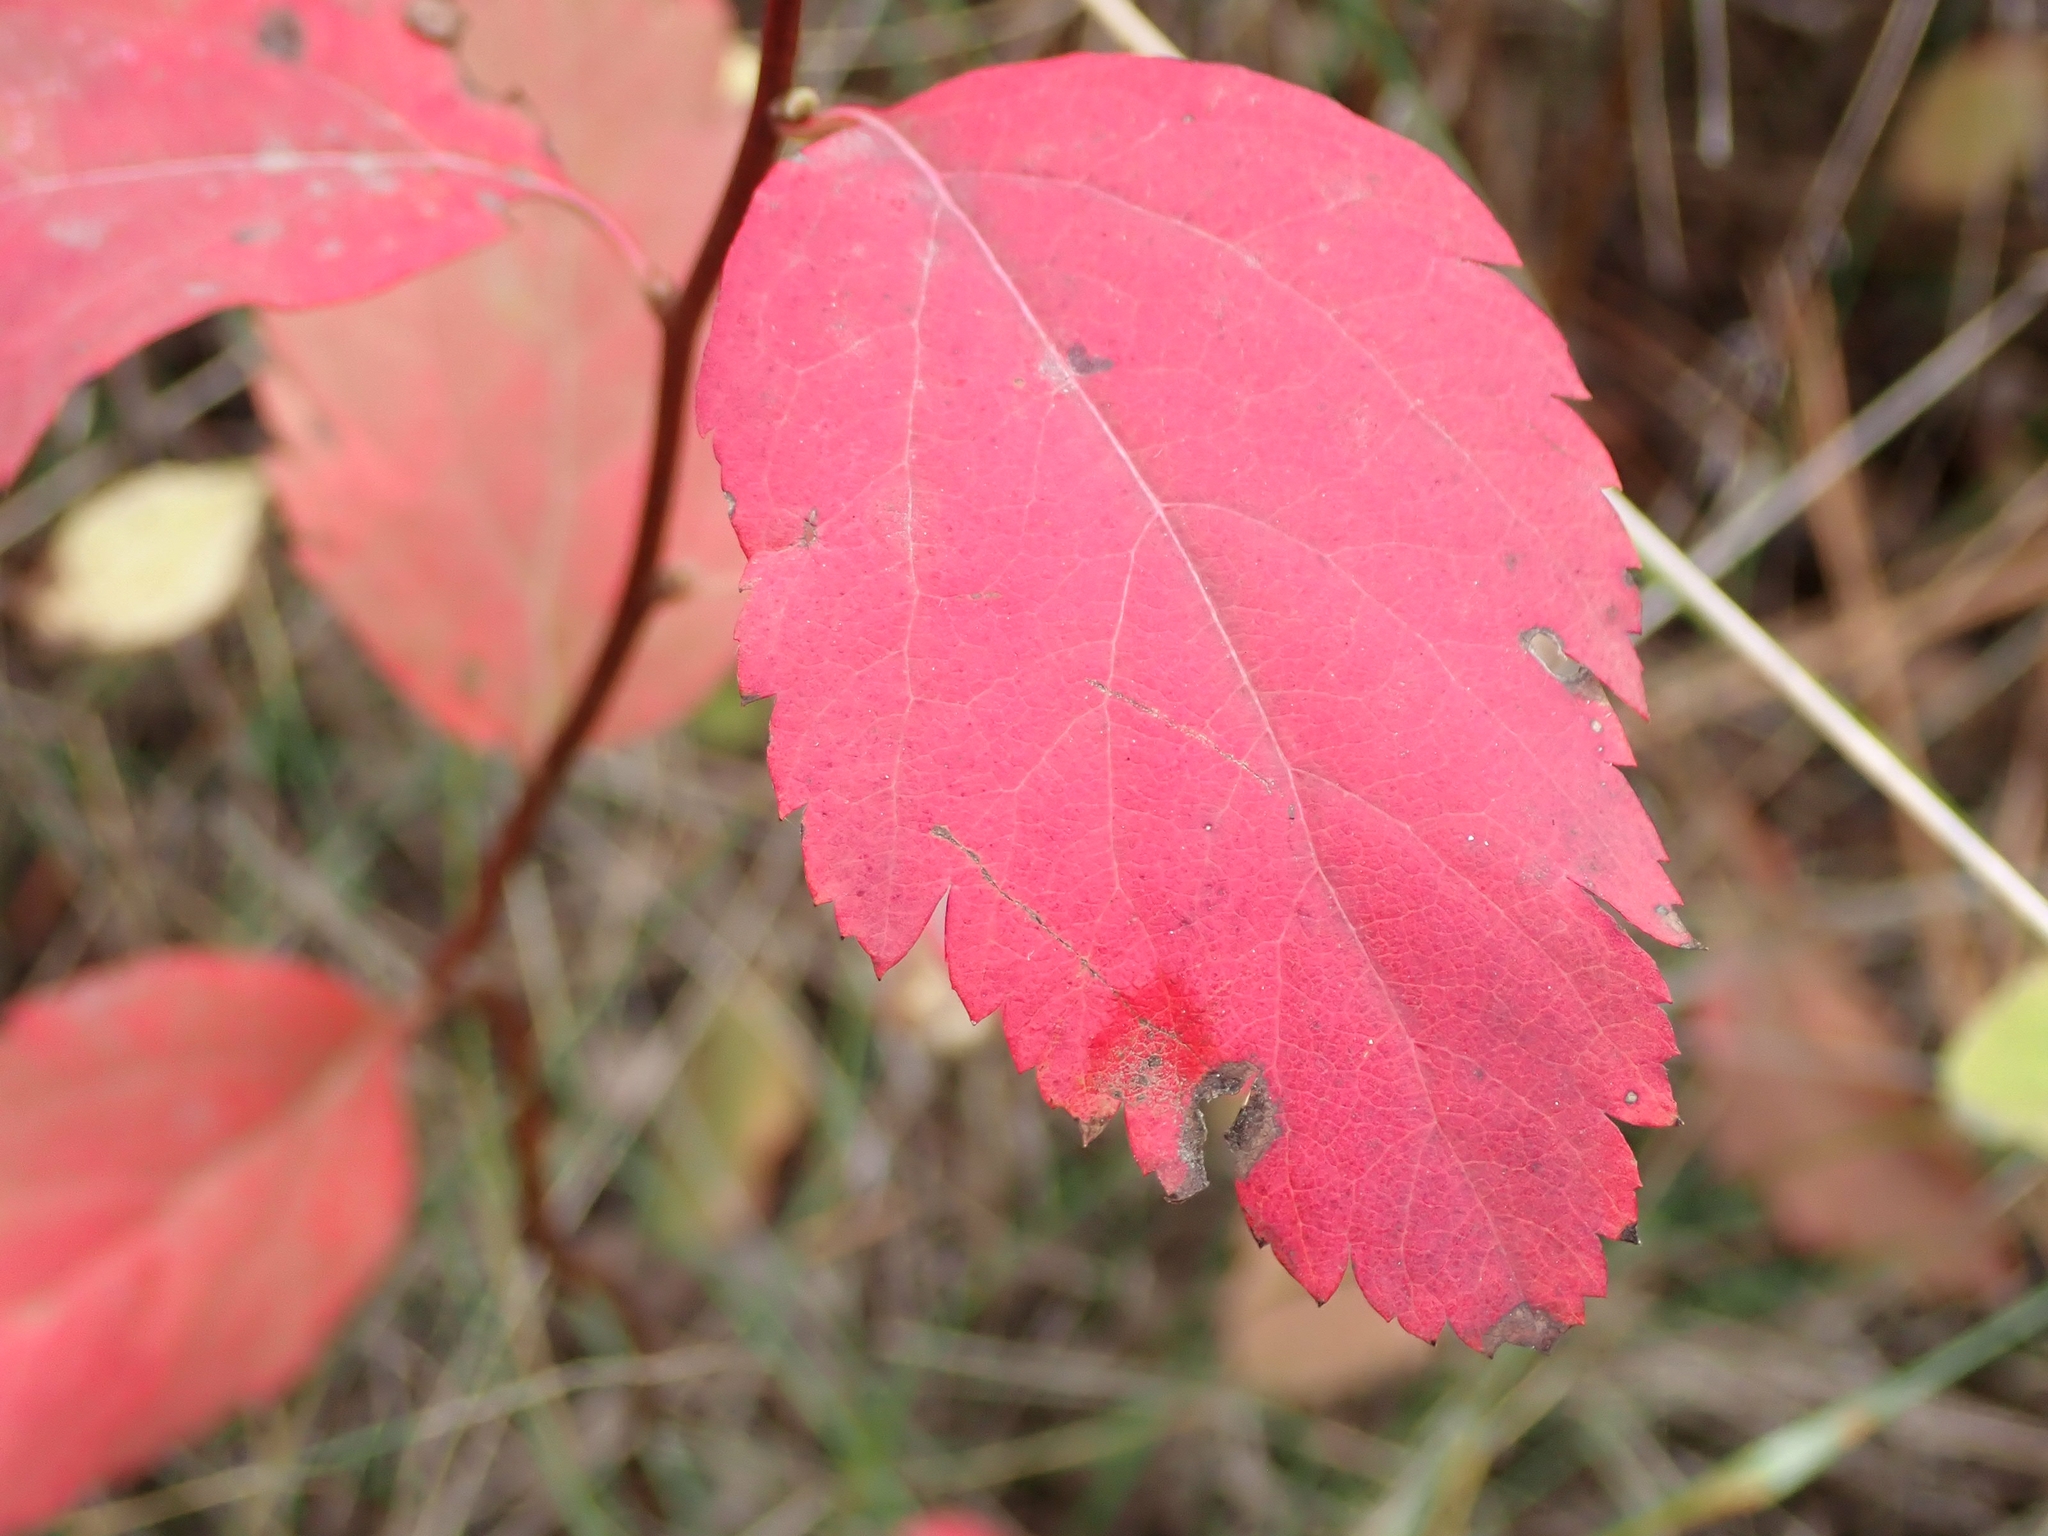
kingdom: Plantae
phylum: Tracheophyta
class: Magnoliopsida
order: Rosales
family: Rosaceae
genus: Spiraea
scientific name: Spiraea lucida
